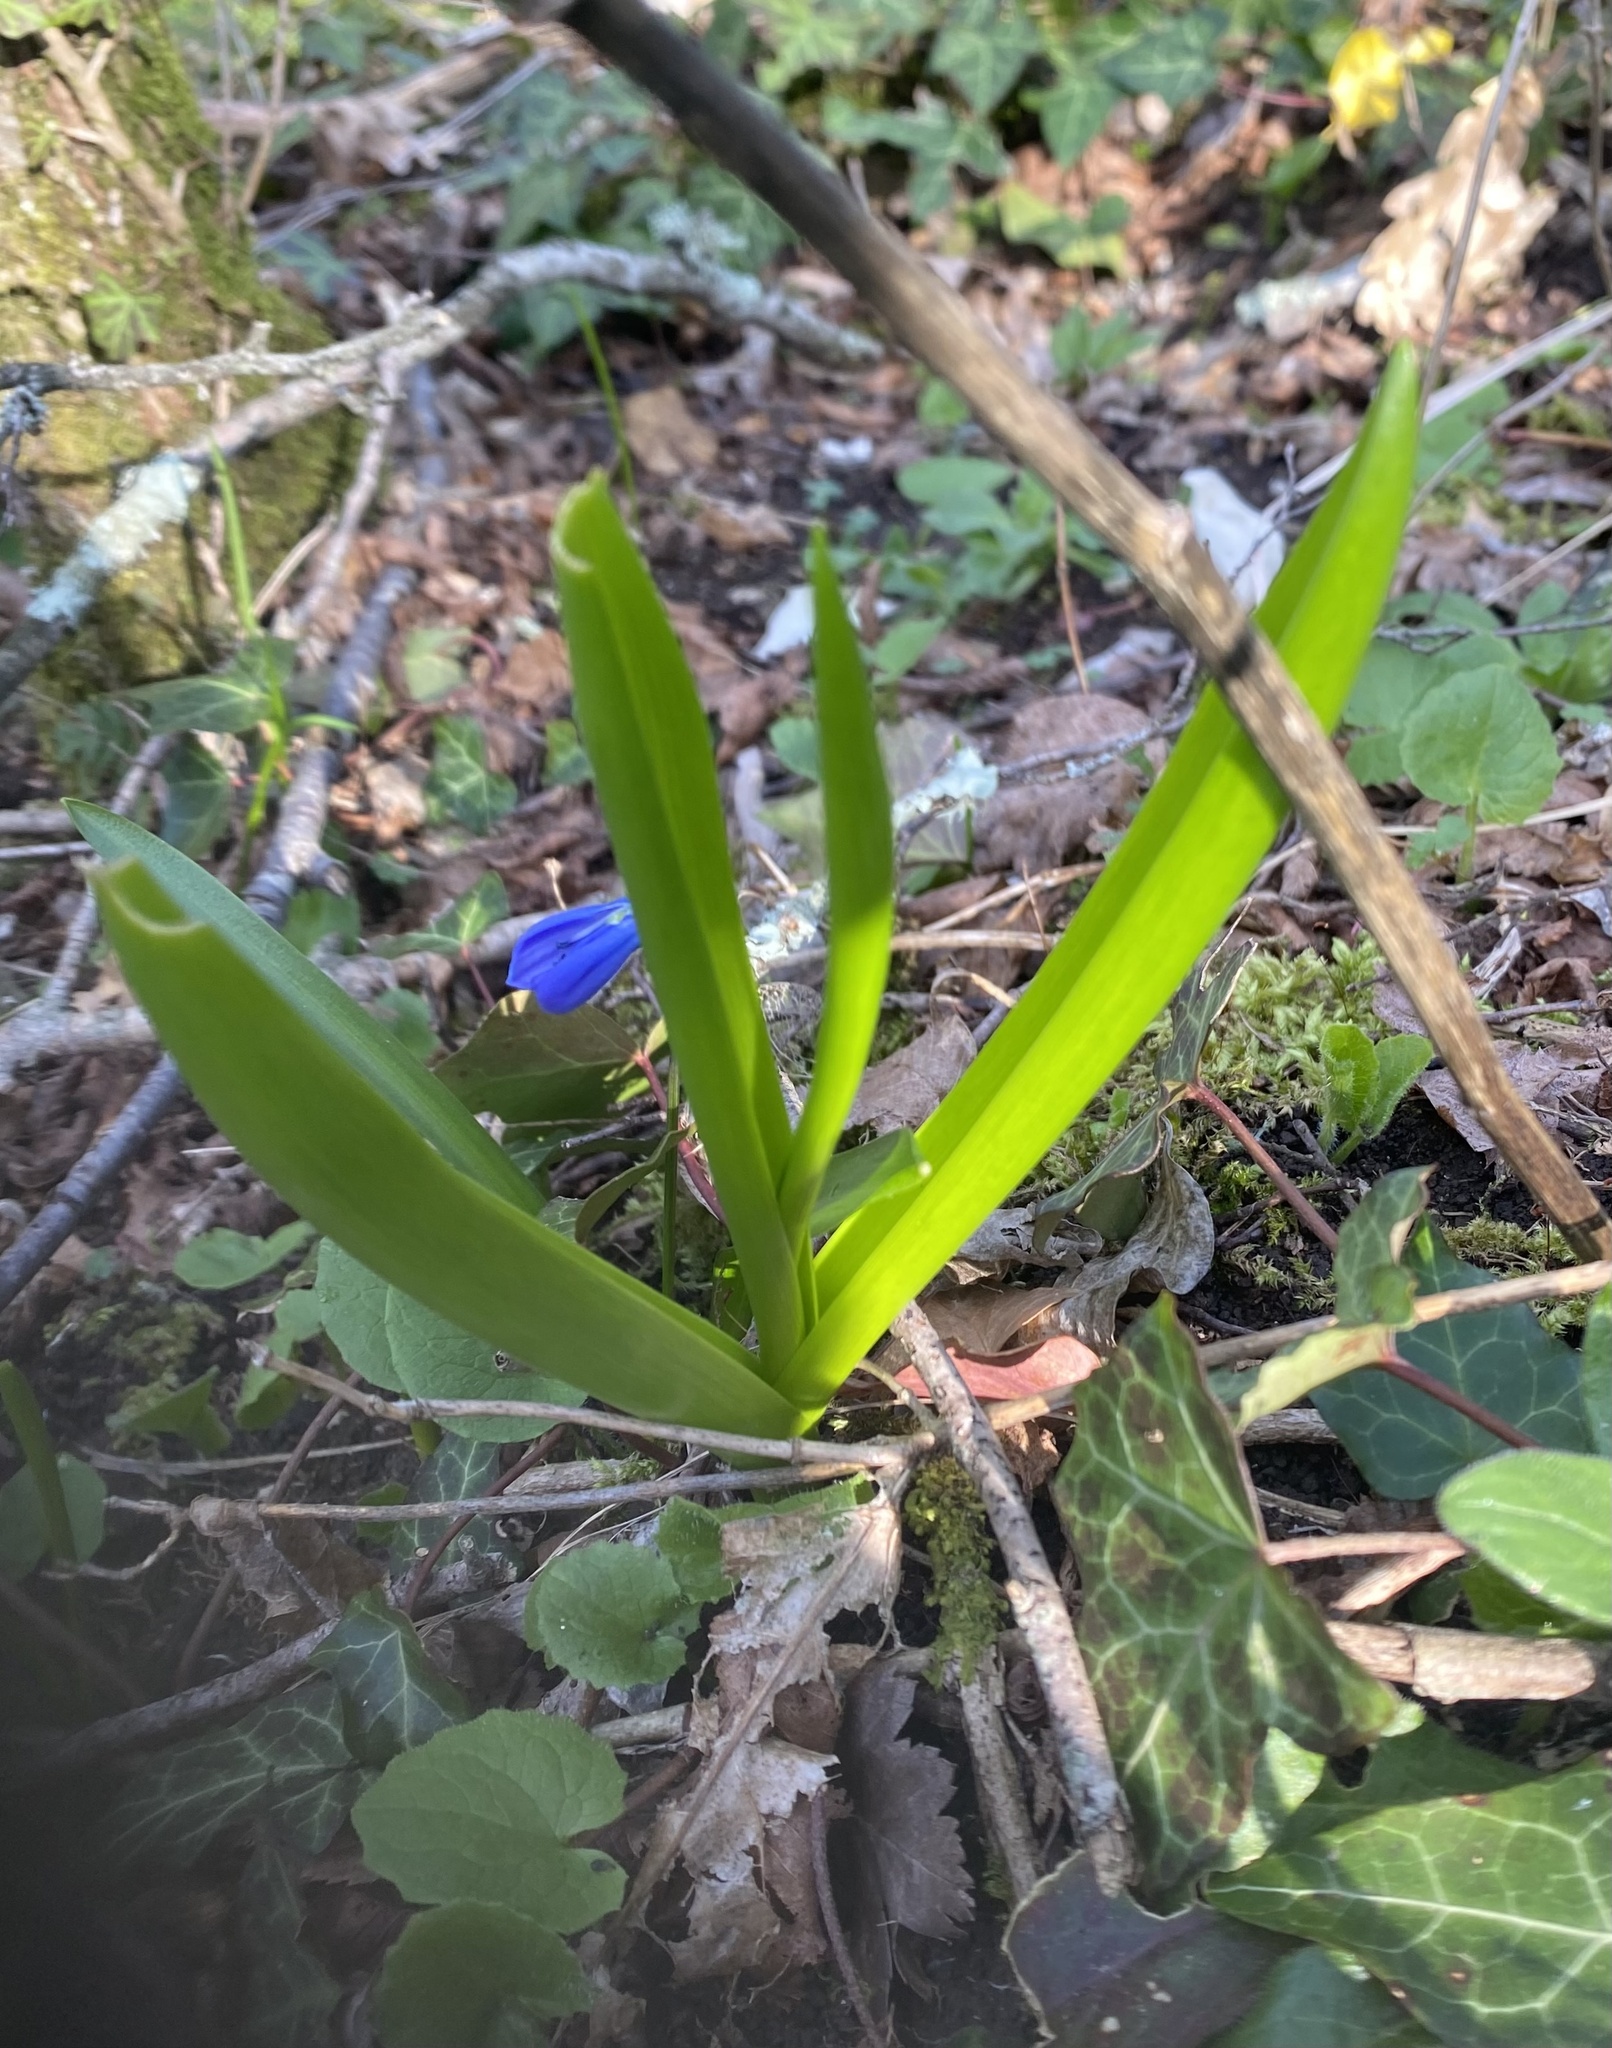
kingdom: Plantae
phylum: Tracheophyta
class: Liliopsida
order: Asparagales
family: Asparagaceae
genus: Scilla
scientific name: Scilla siberica
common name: Siberian squill
